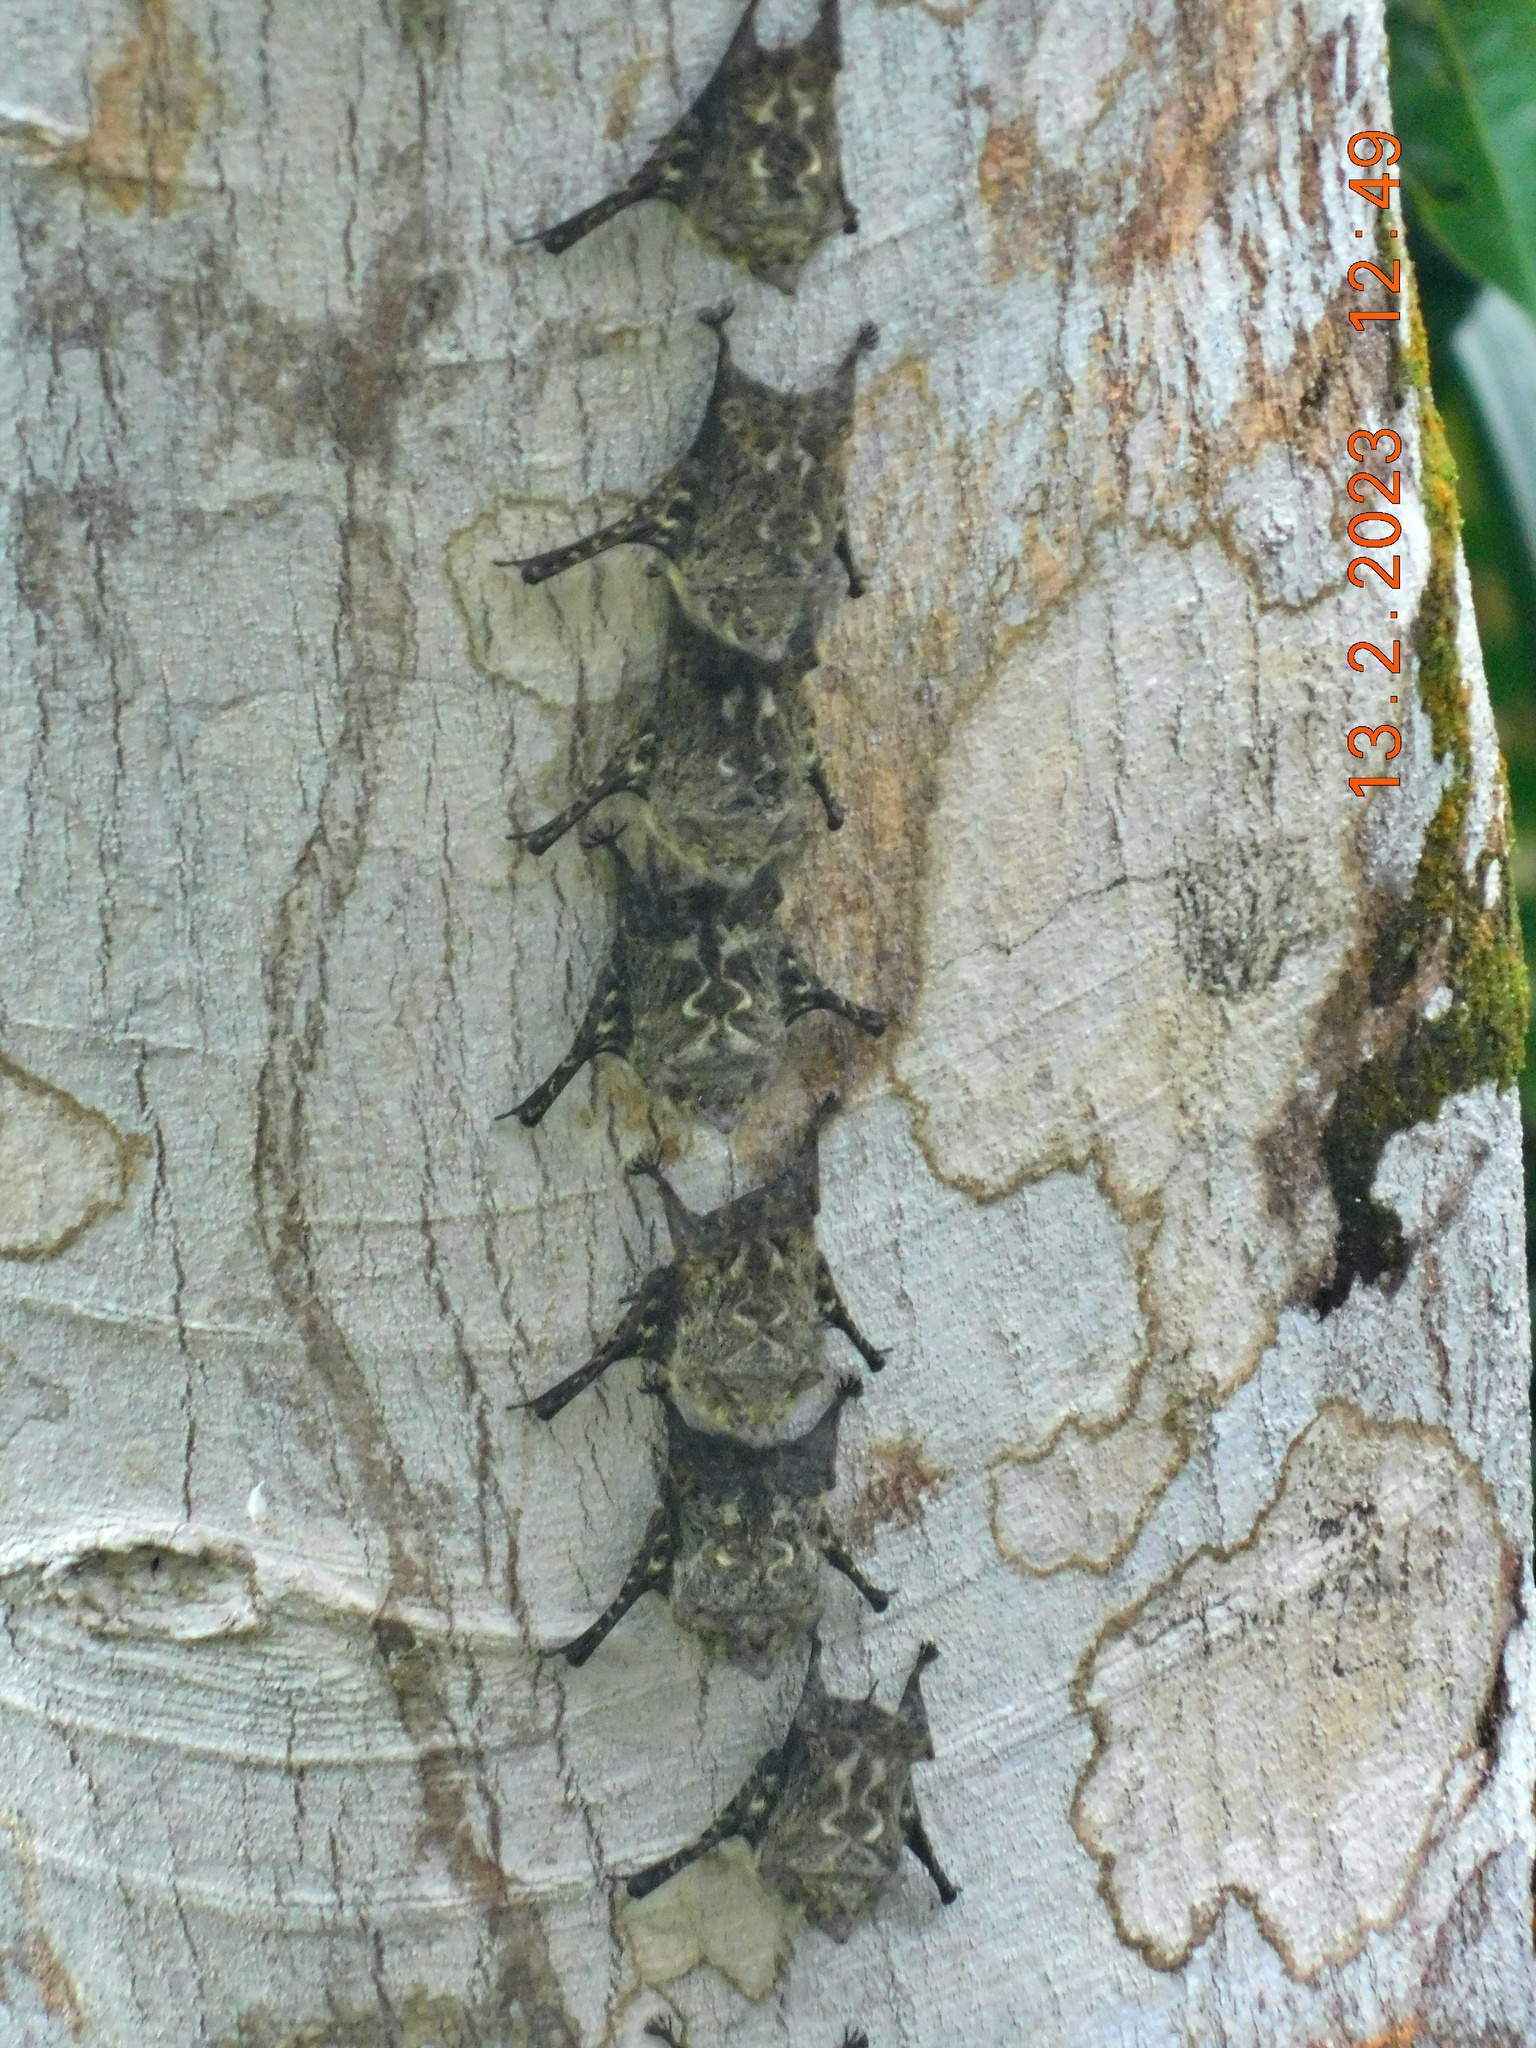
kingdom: Animalia
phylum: Chordata
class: Mammalia
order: Chiroptera
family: Emballonuridae
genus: Rhynchonycteris
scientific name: Rhynchonycteris naso
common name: Proboscis bat
